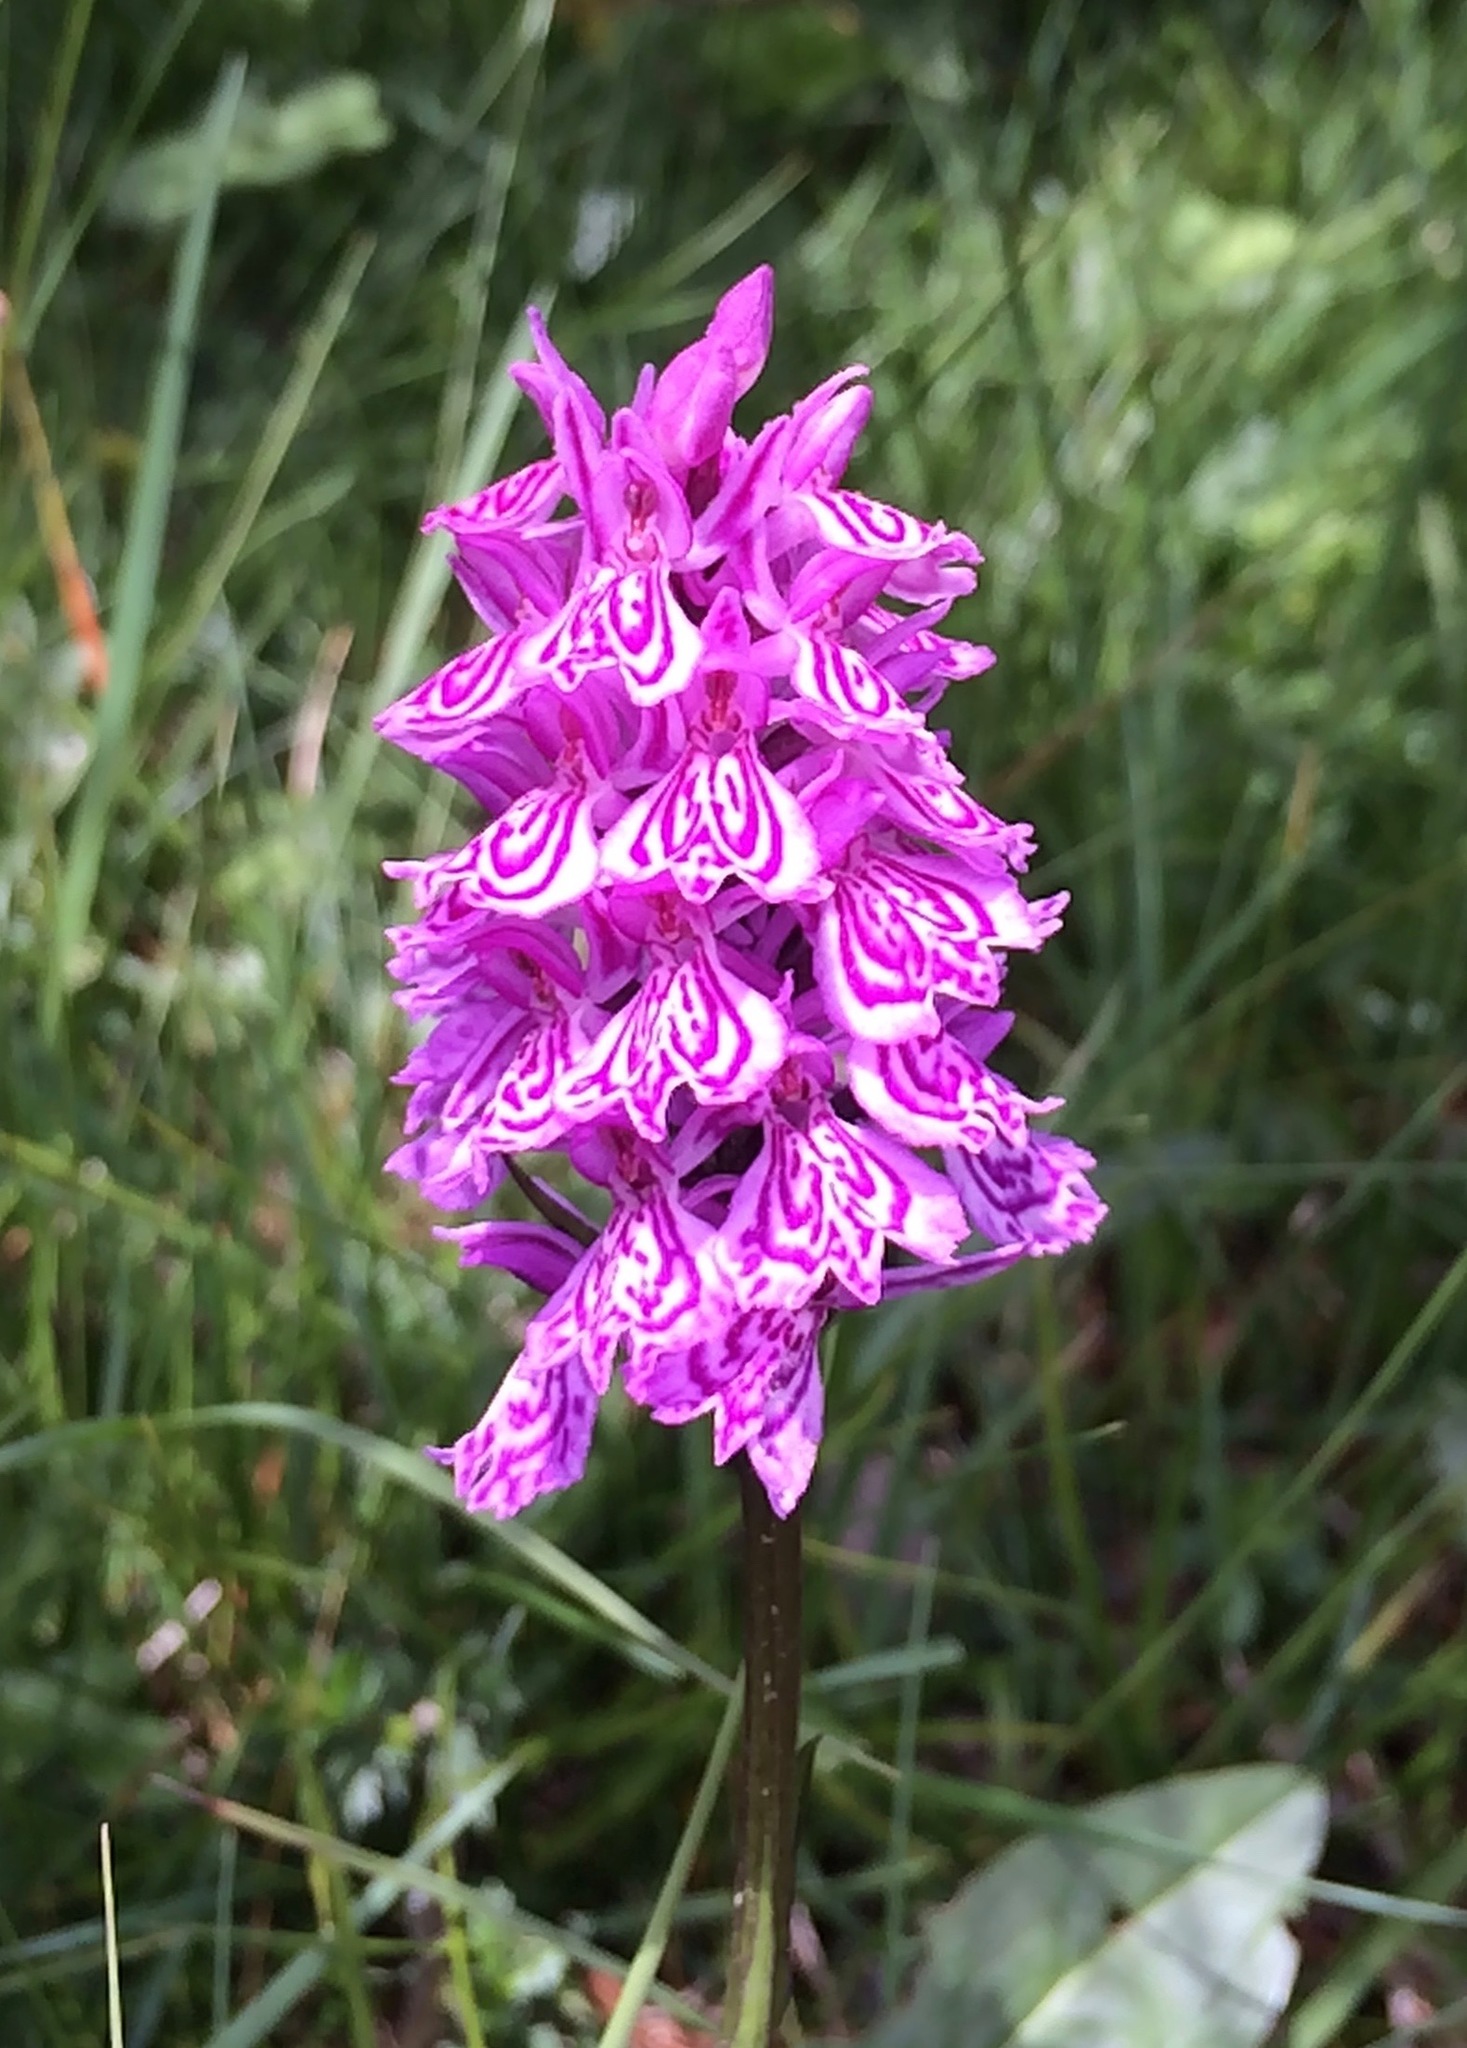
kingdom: Plantae
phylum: Tracheophyta
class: Liliopsida
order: Asparagales
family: Orchidaceae
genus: Dactylorhiza
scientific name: Dactylorhiza maculata
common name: Heath spotted-orchid
